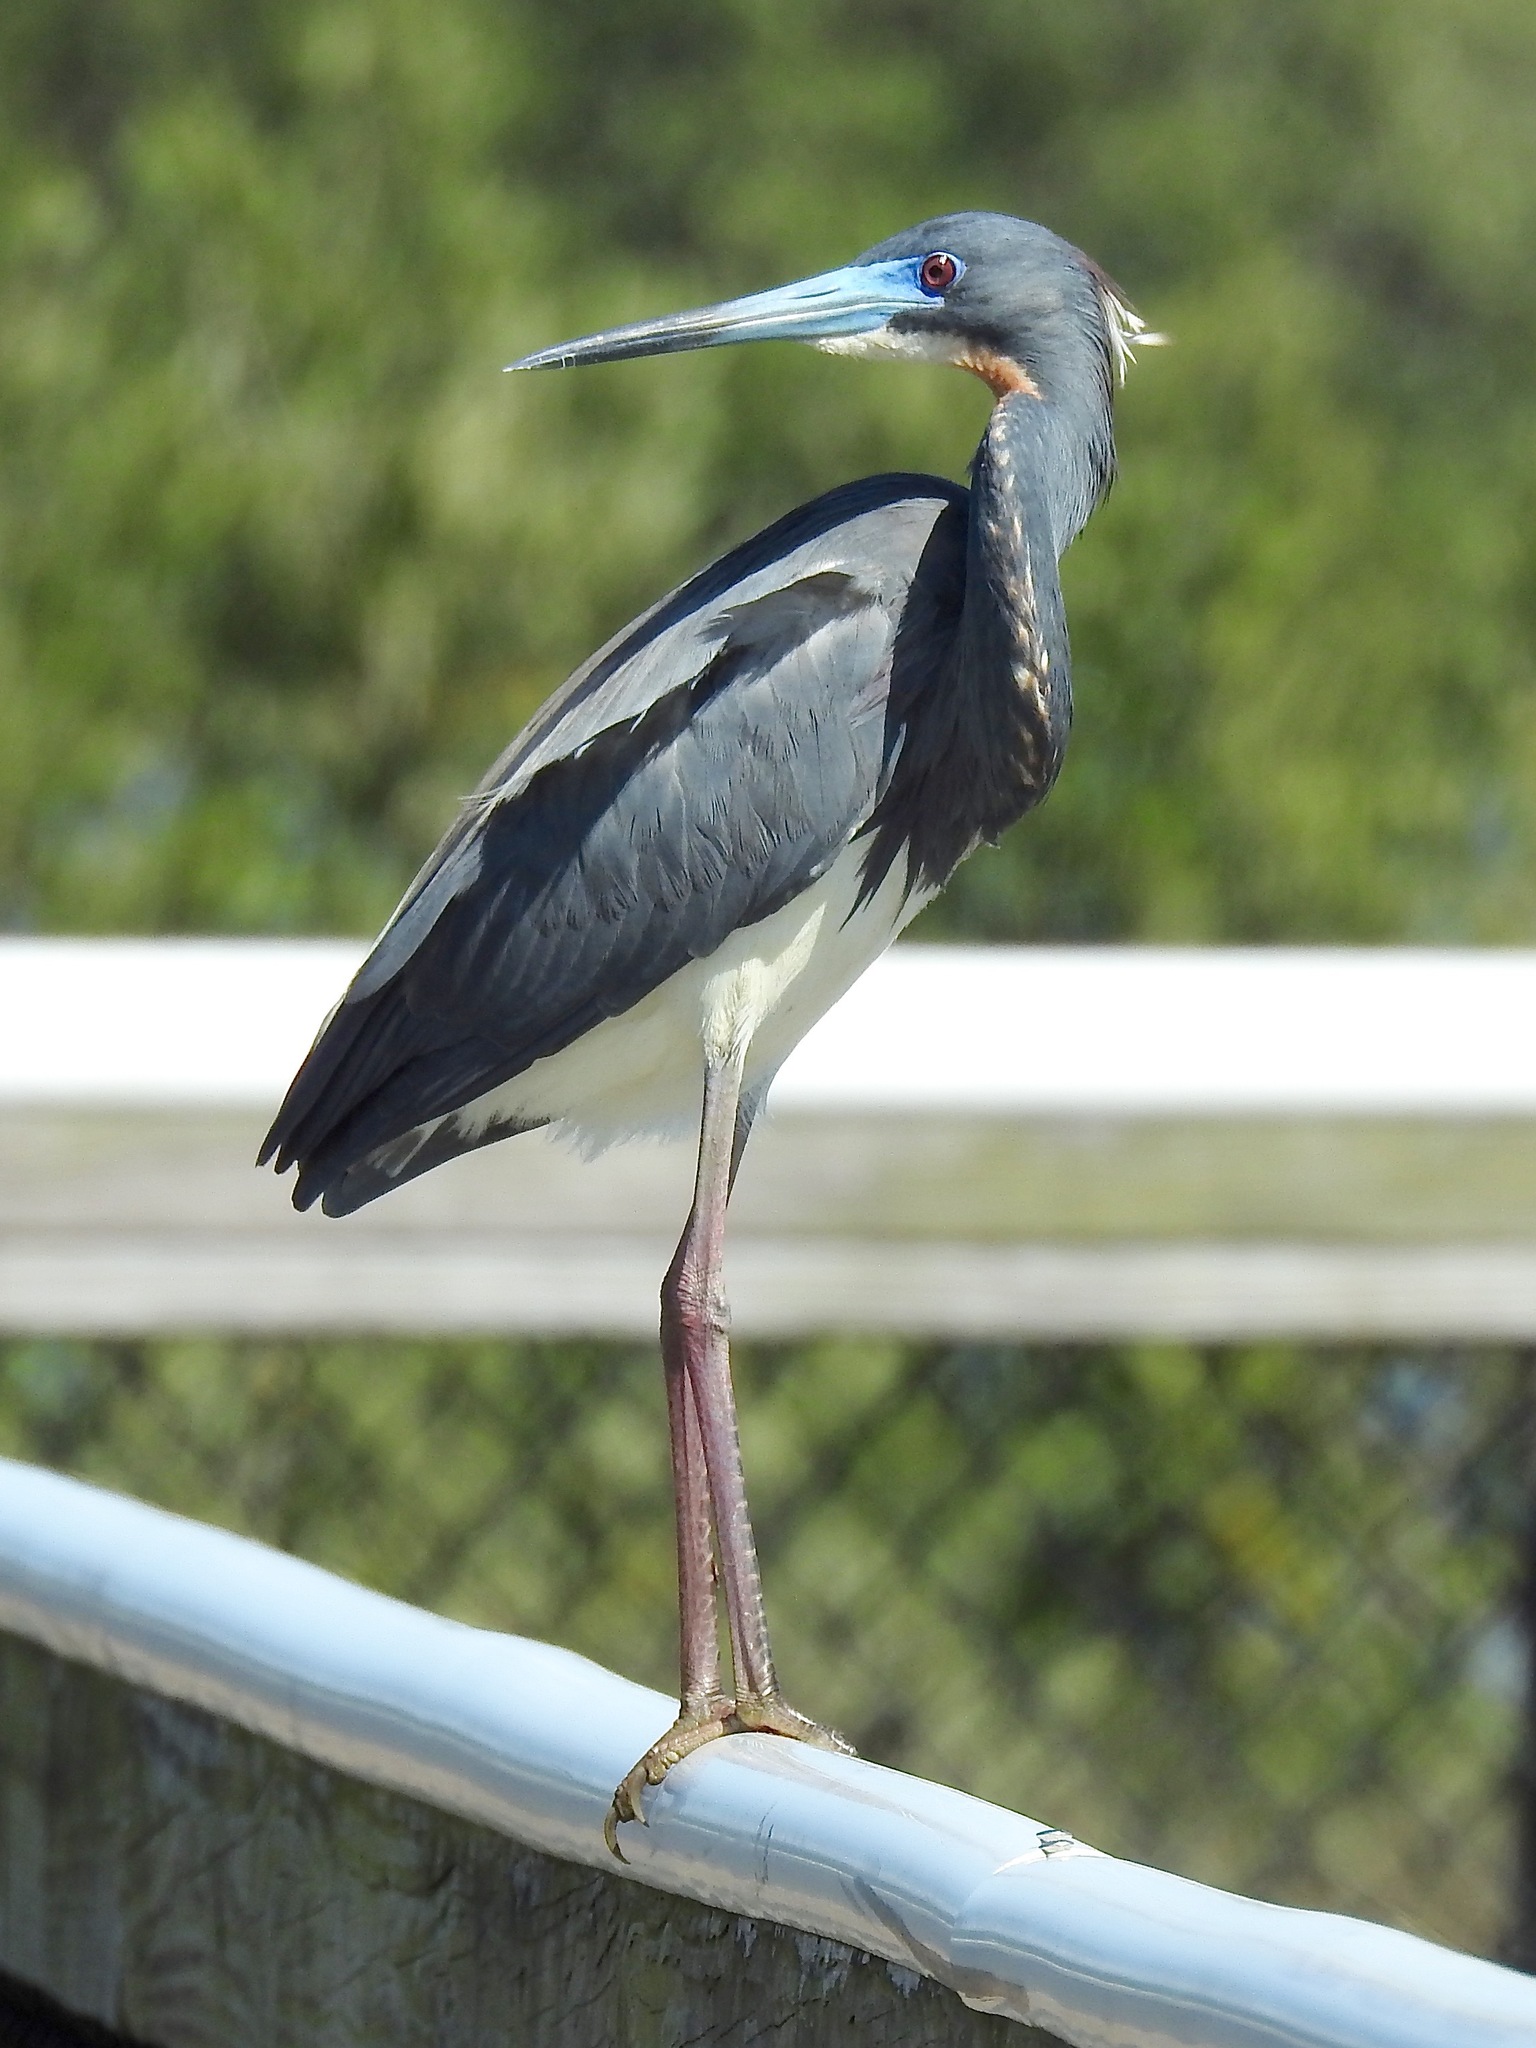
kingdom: Animalia
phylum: Chordata
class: Aves
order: Pelecaniformes
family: Ardeidae
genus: Egretta
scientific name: Egretta tricolor
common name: Tricolored heron
